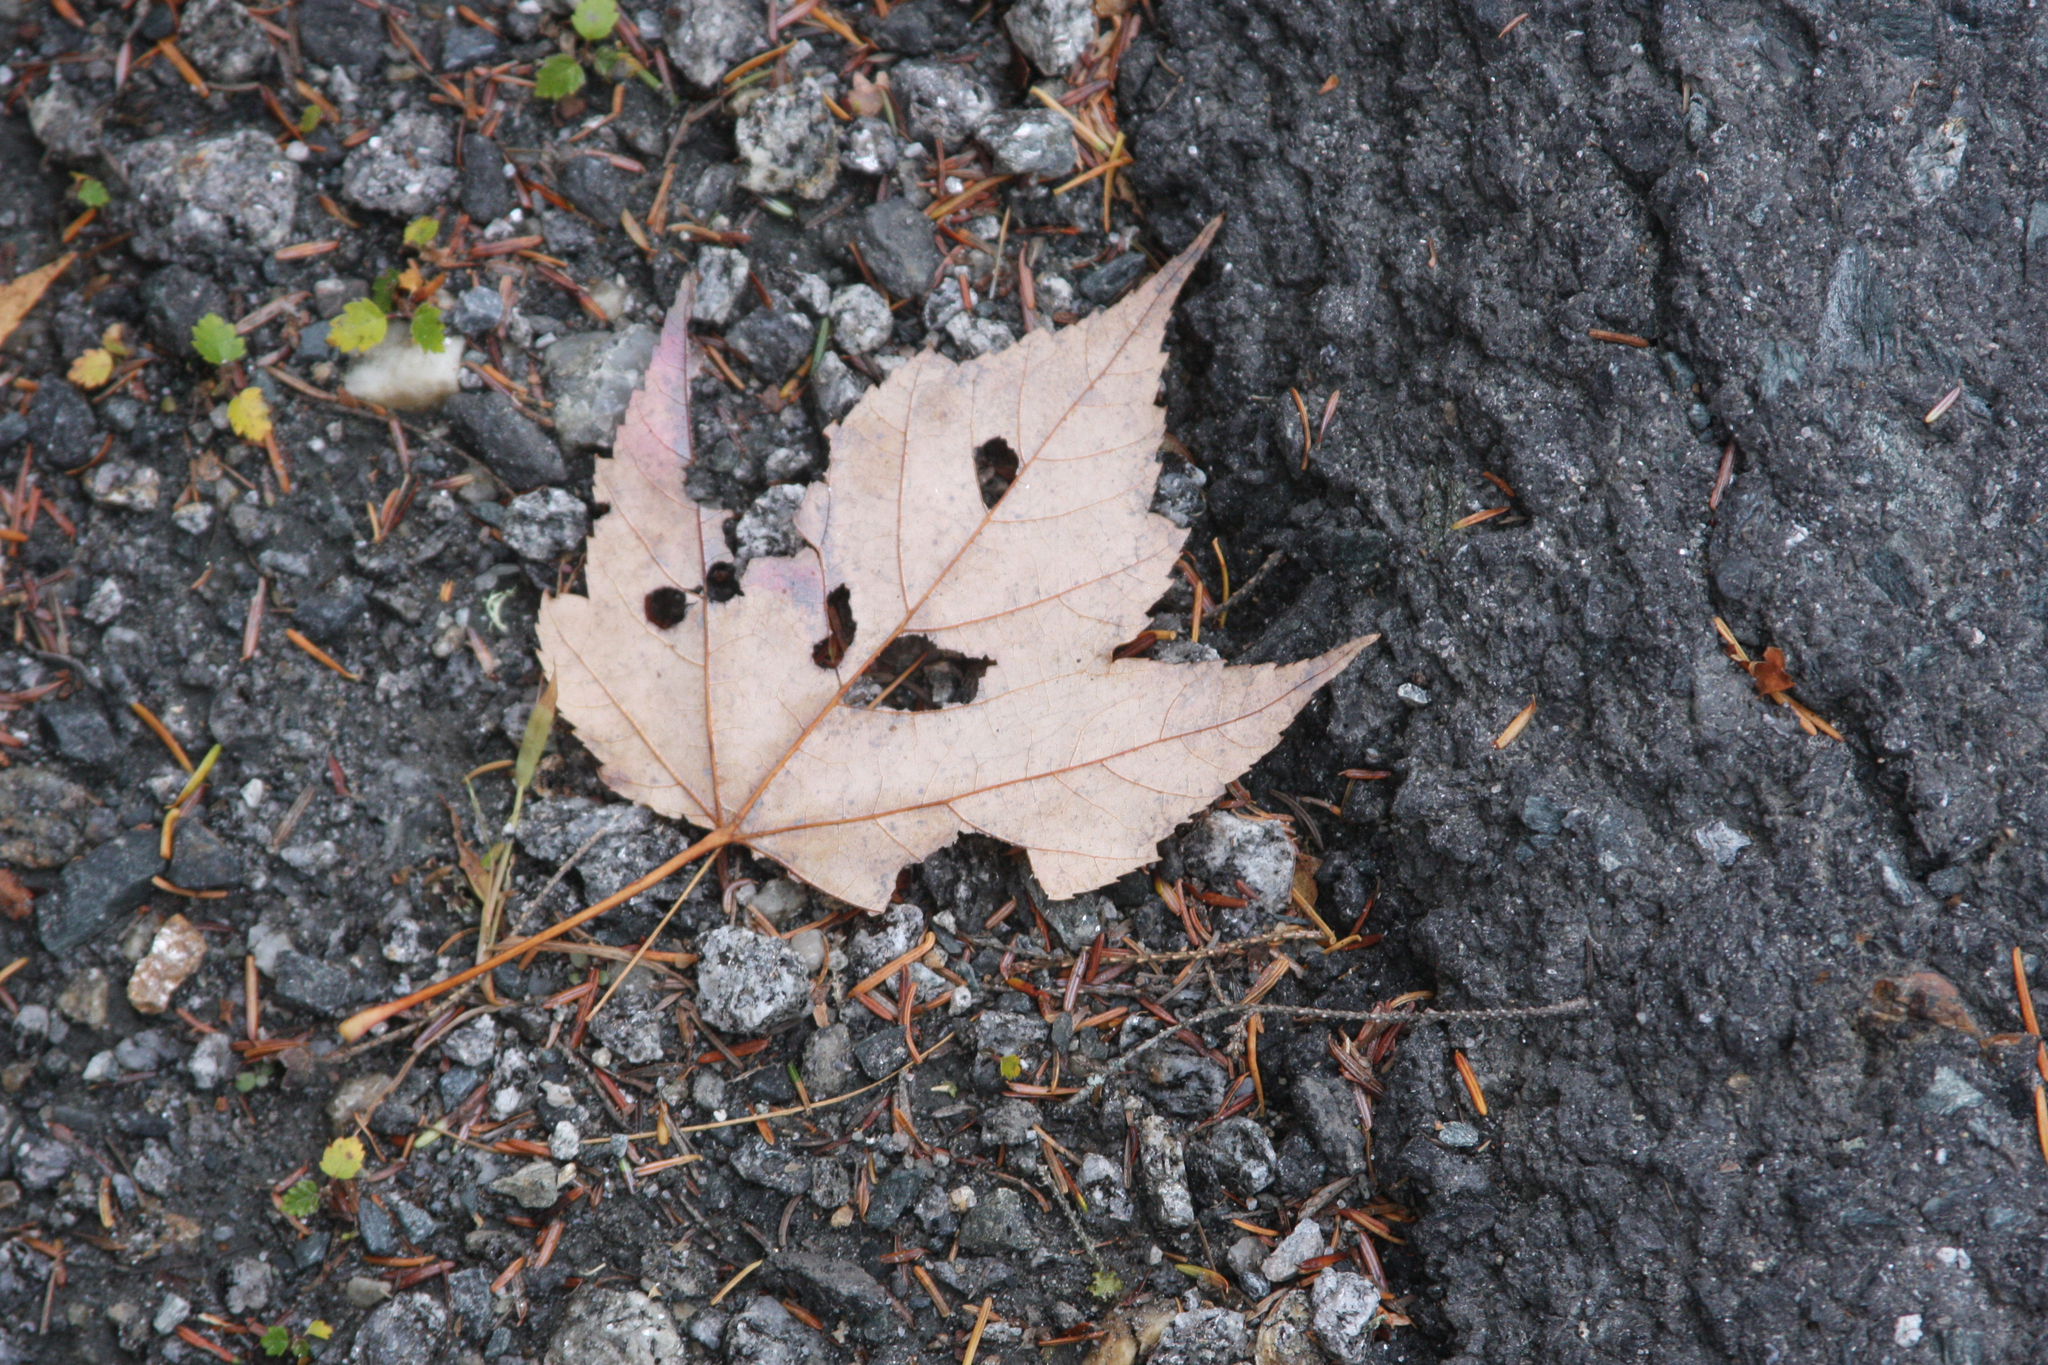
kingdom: Plantae
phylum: Tracheophyta
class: Magnoliopsida
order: Sapindales
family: Sapindaceae
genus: Acer
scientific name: Acer rubrum
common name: Red maple
